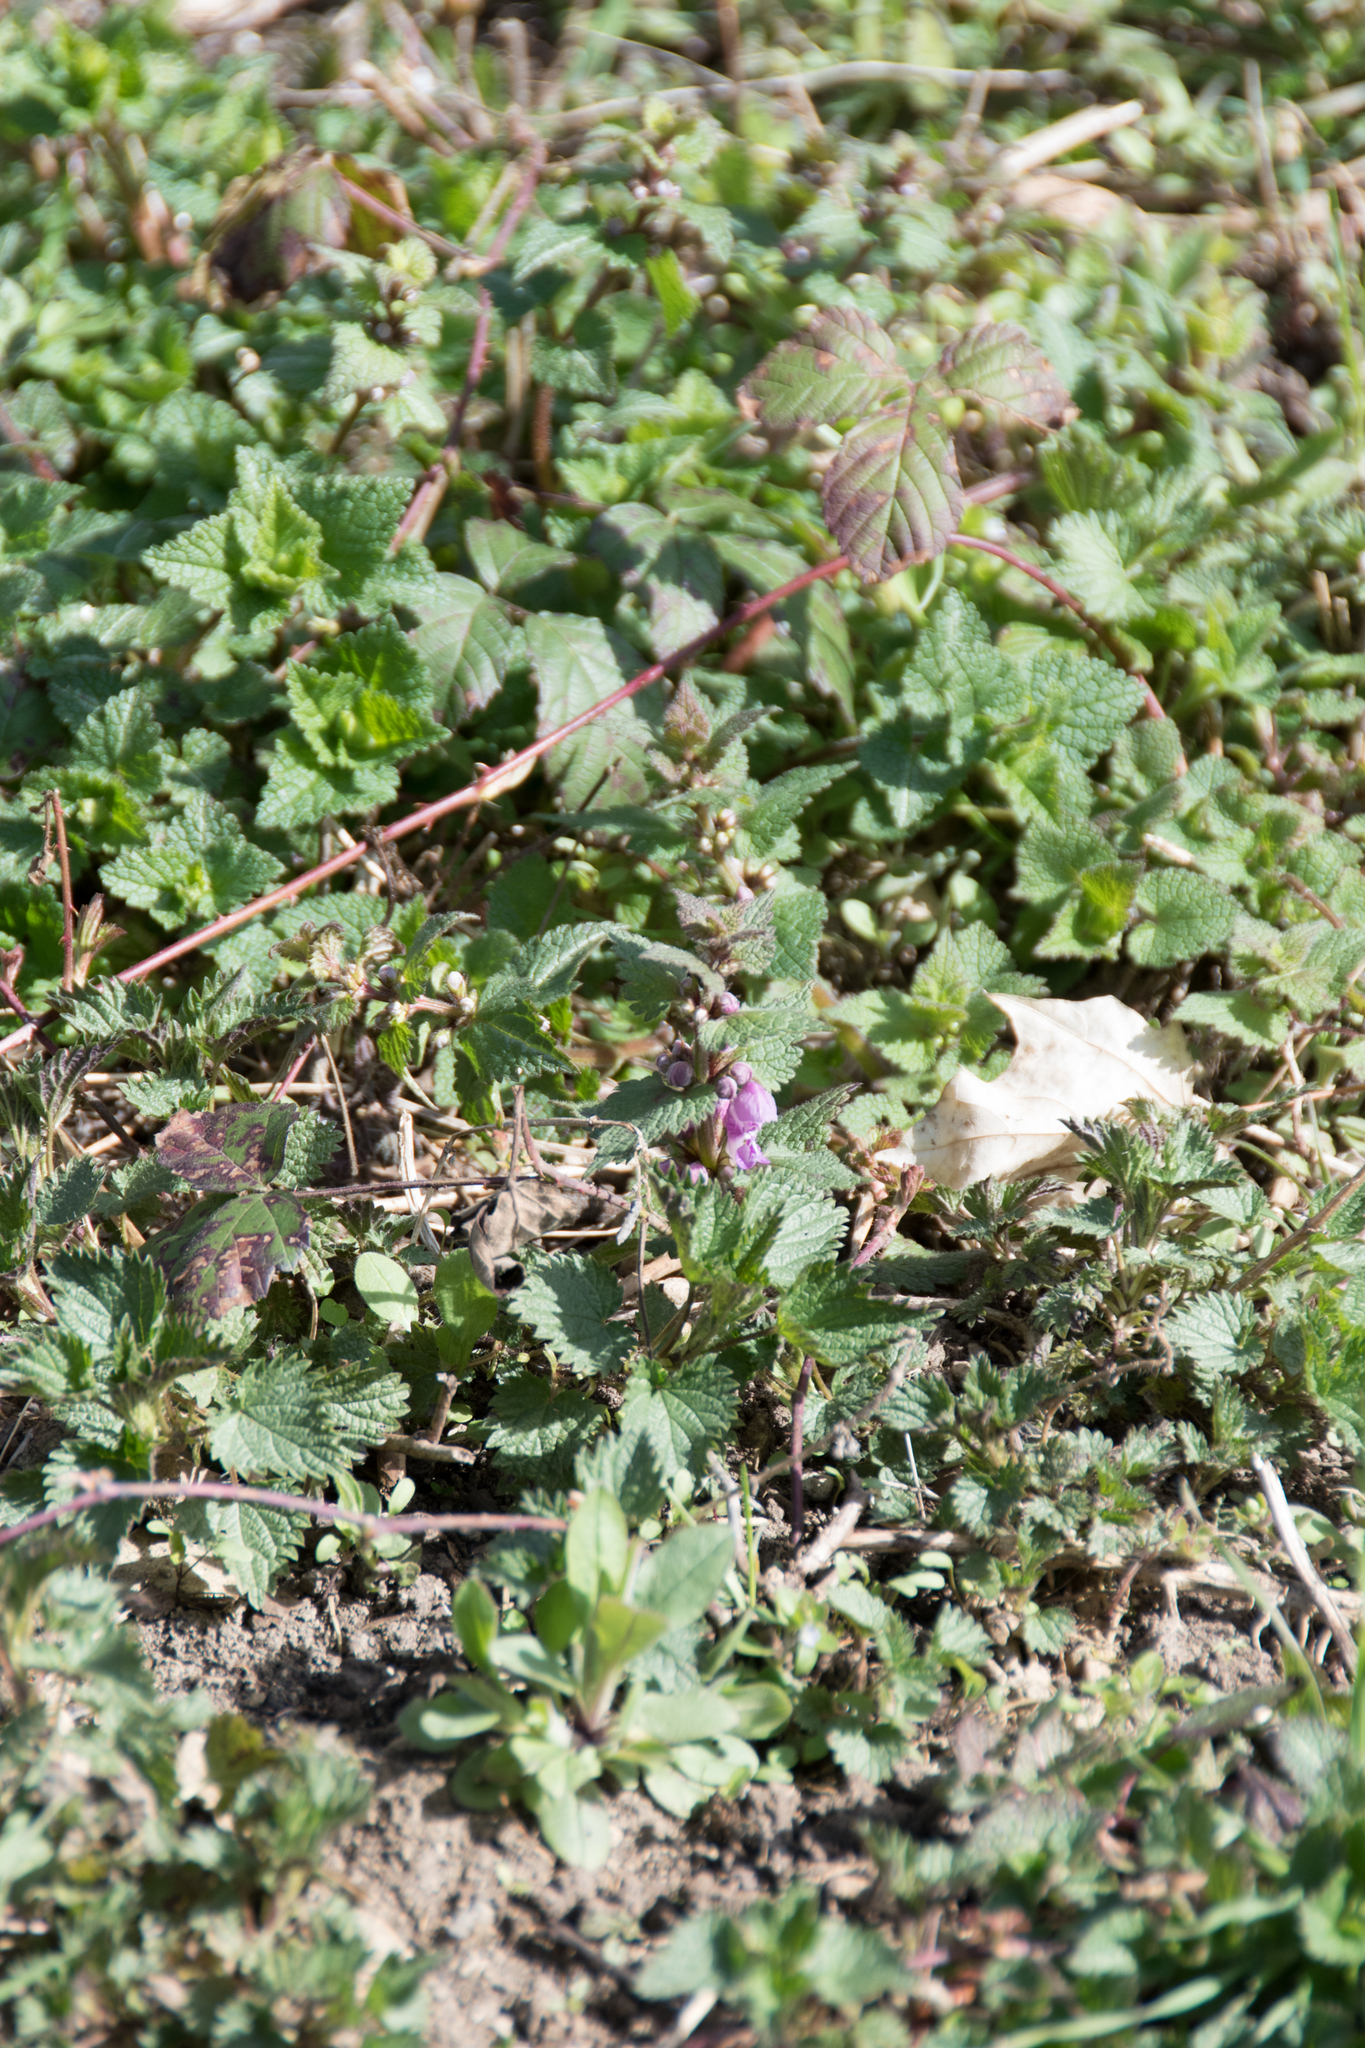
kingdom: Plantae
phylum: Tracheophyta
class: Magnoliopsida
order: Lamiales
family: Lamiaceae
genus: Lamium
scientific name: Lamium maculatum
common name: Spotted dead-nettle
